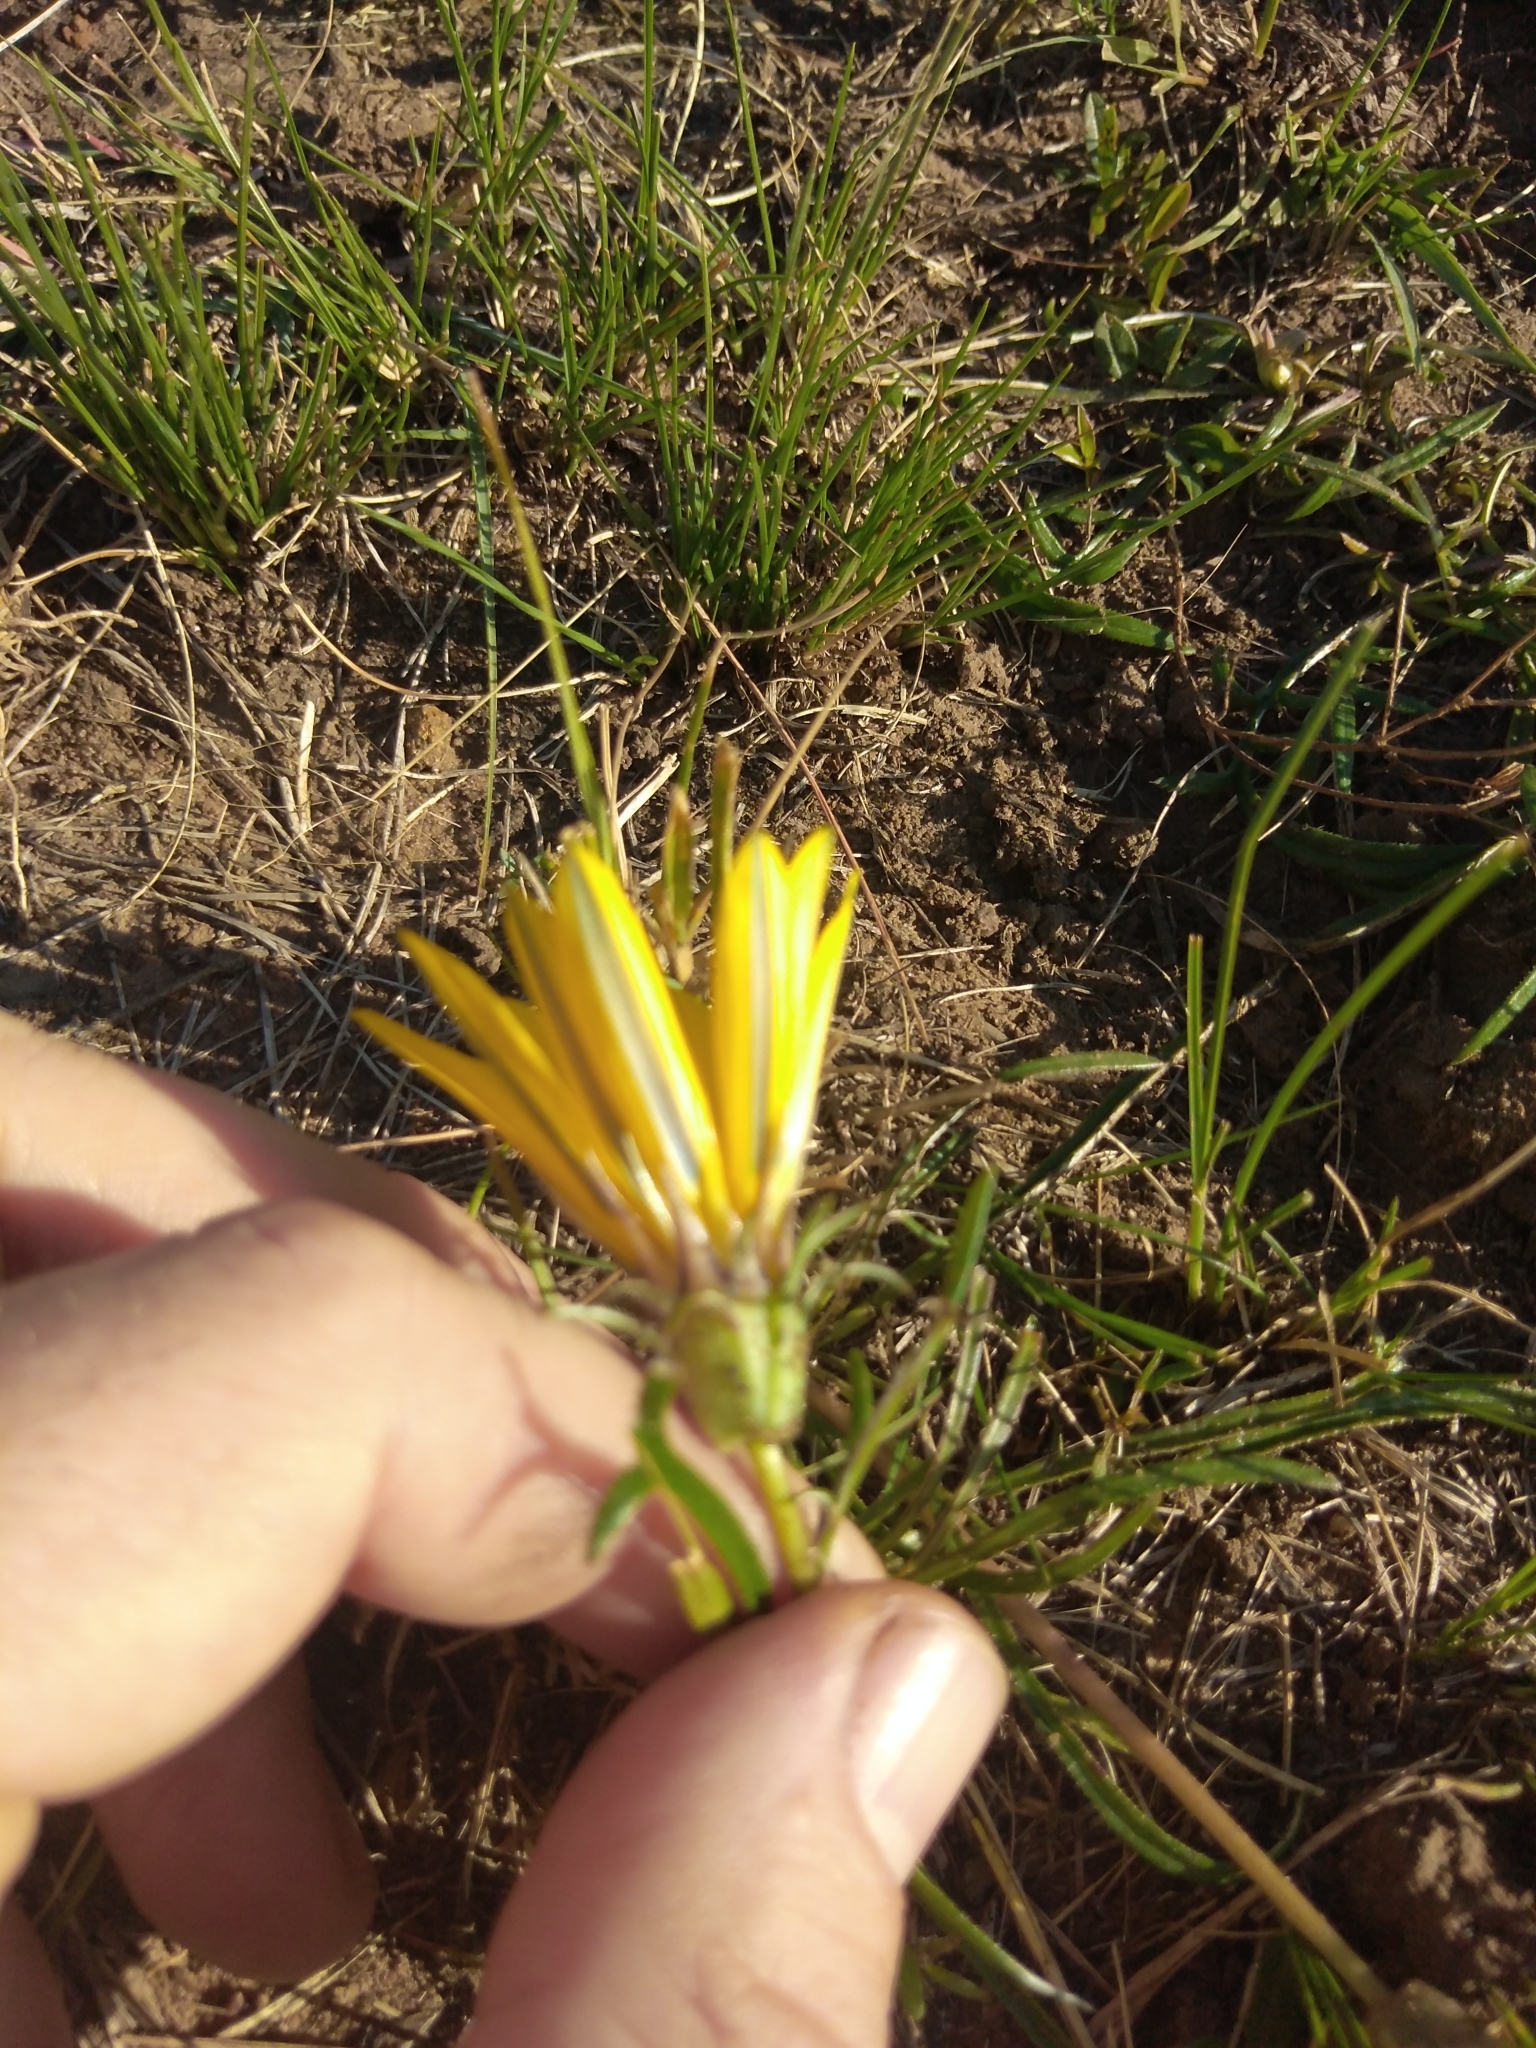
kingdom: Plantae
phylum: Tracheophyta
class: Magnoliopsida
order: Asterales
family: Asteraceae
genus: Gazania
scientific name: Gazania linearis
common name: Treasureflower
